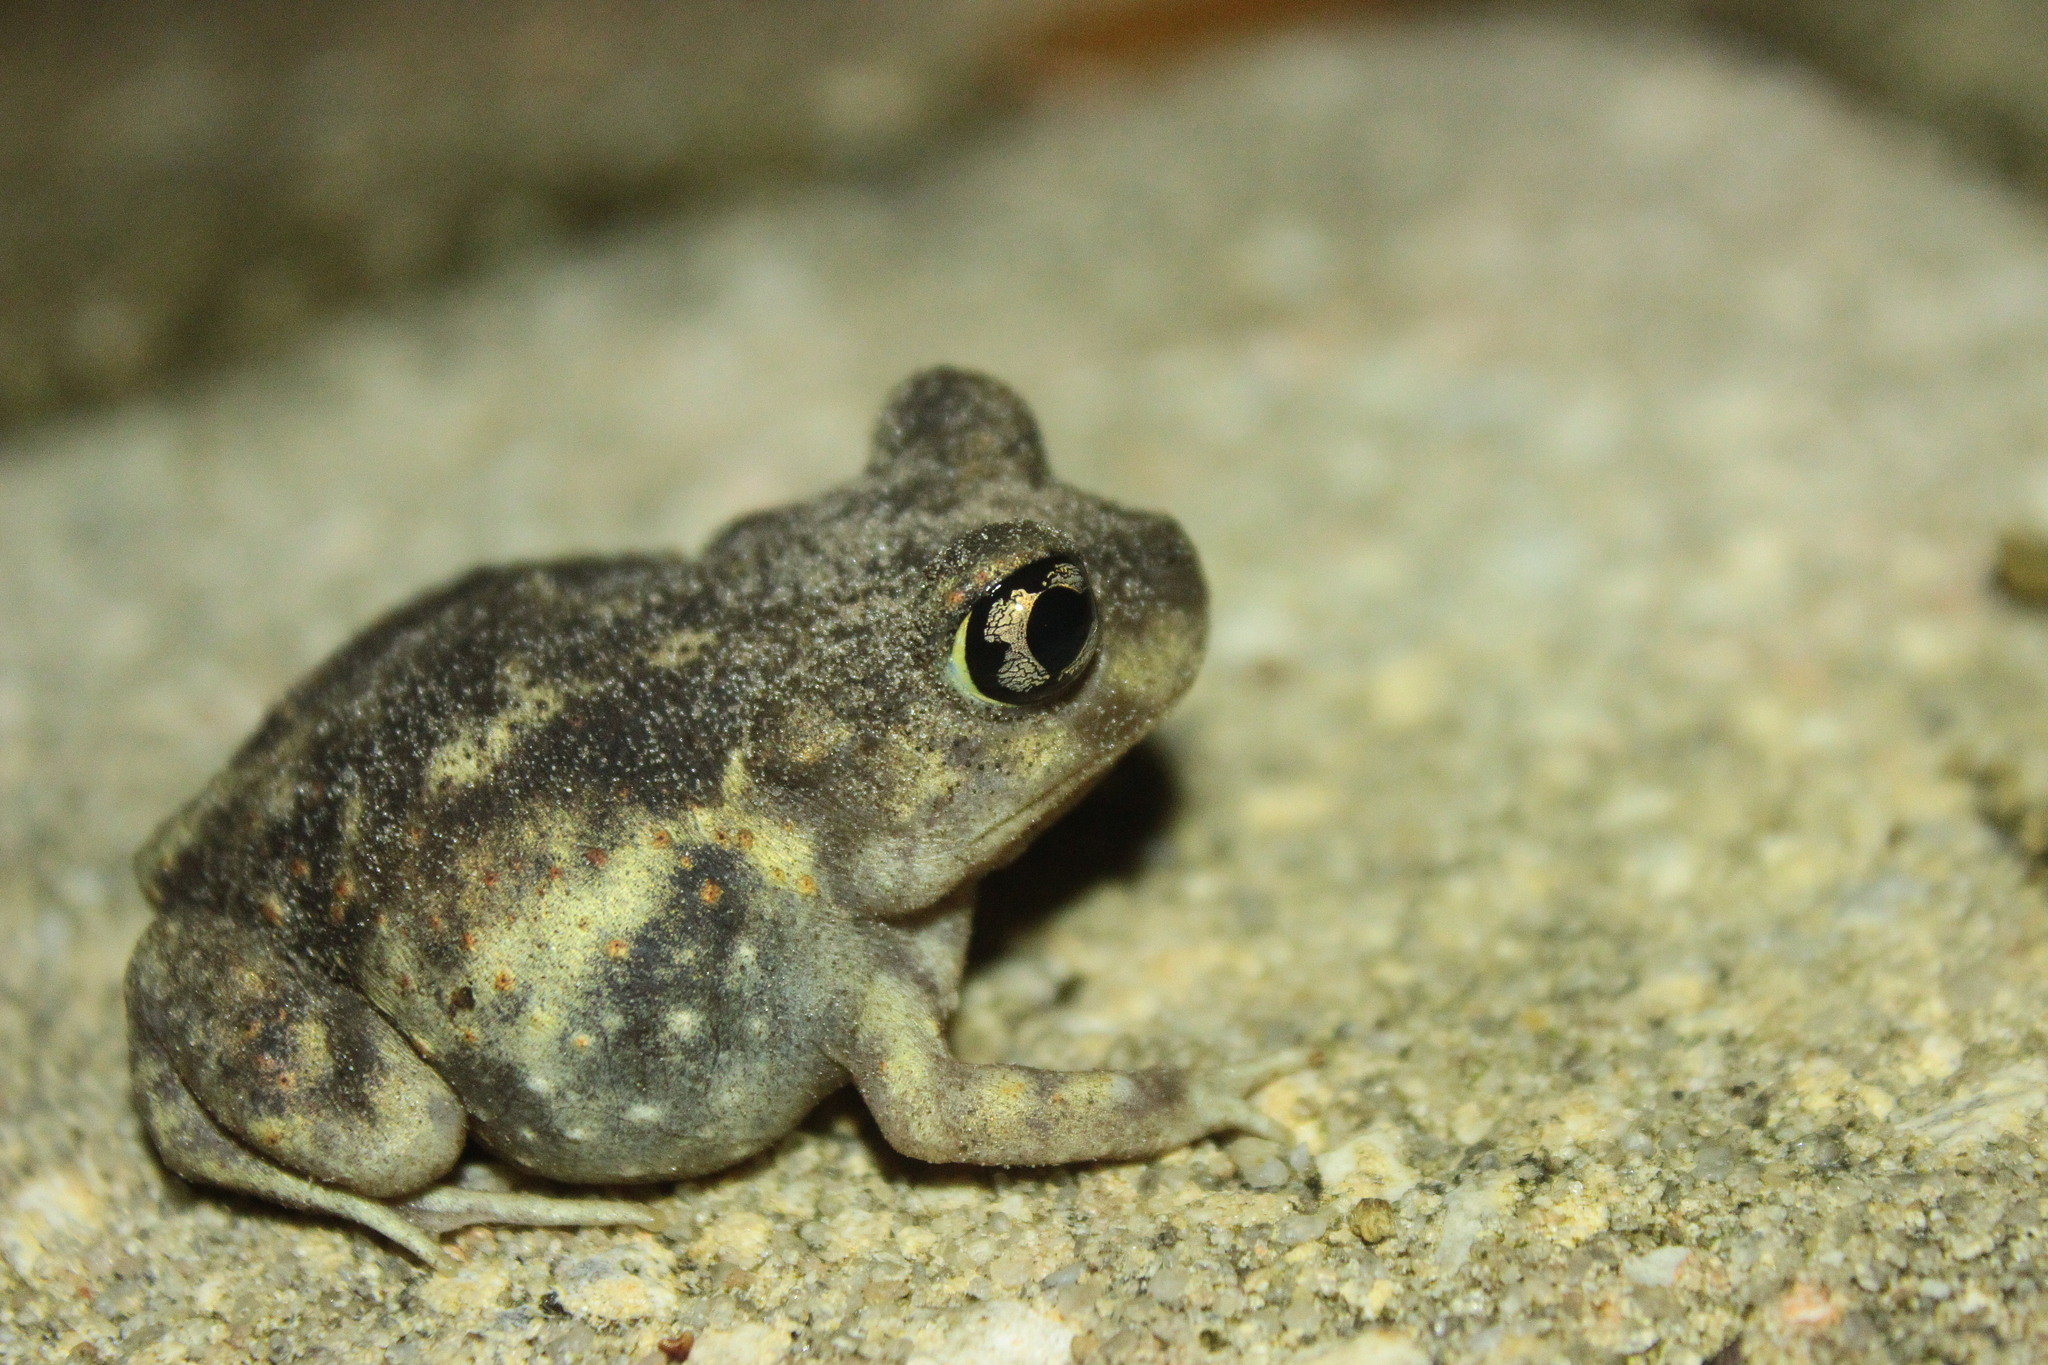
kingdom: Animalia
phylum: Chordata
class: Amphibia
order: Anura
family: Scaphiopodidae
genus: Scaphiopus
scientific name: Scaphiopus holbrookii
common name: Eastern spadefoot toad
